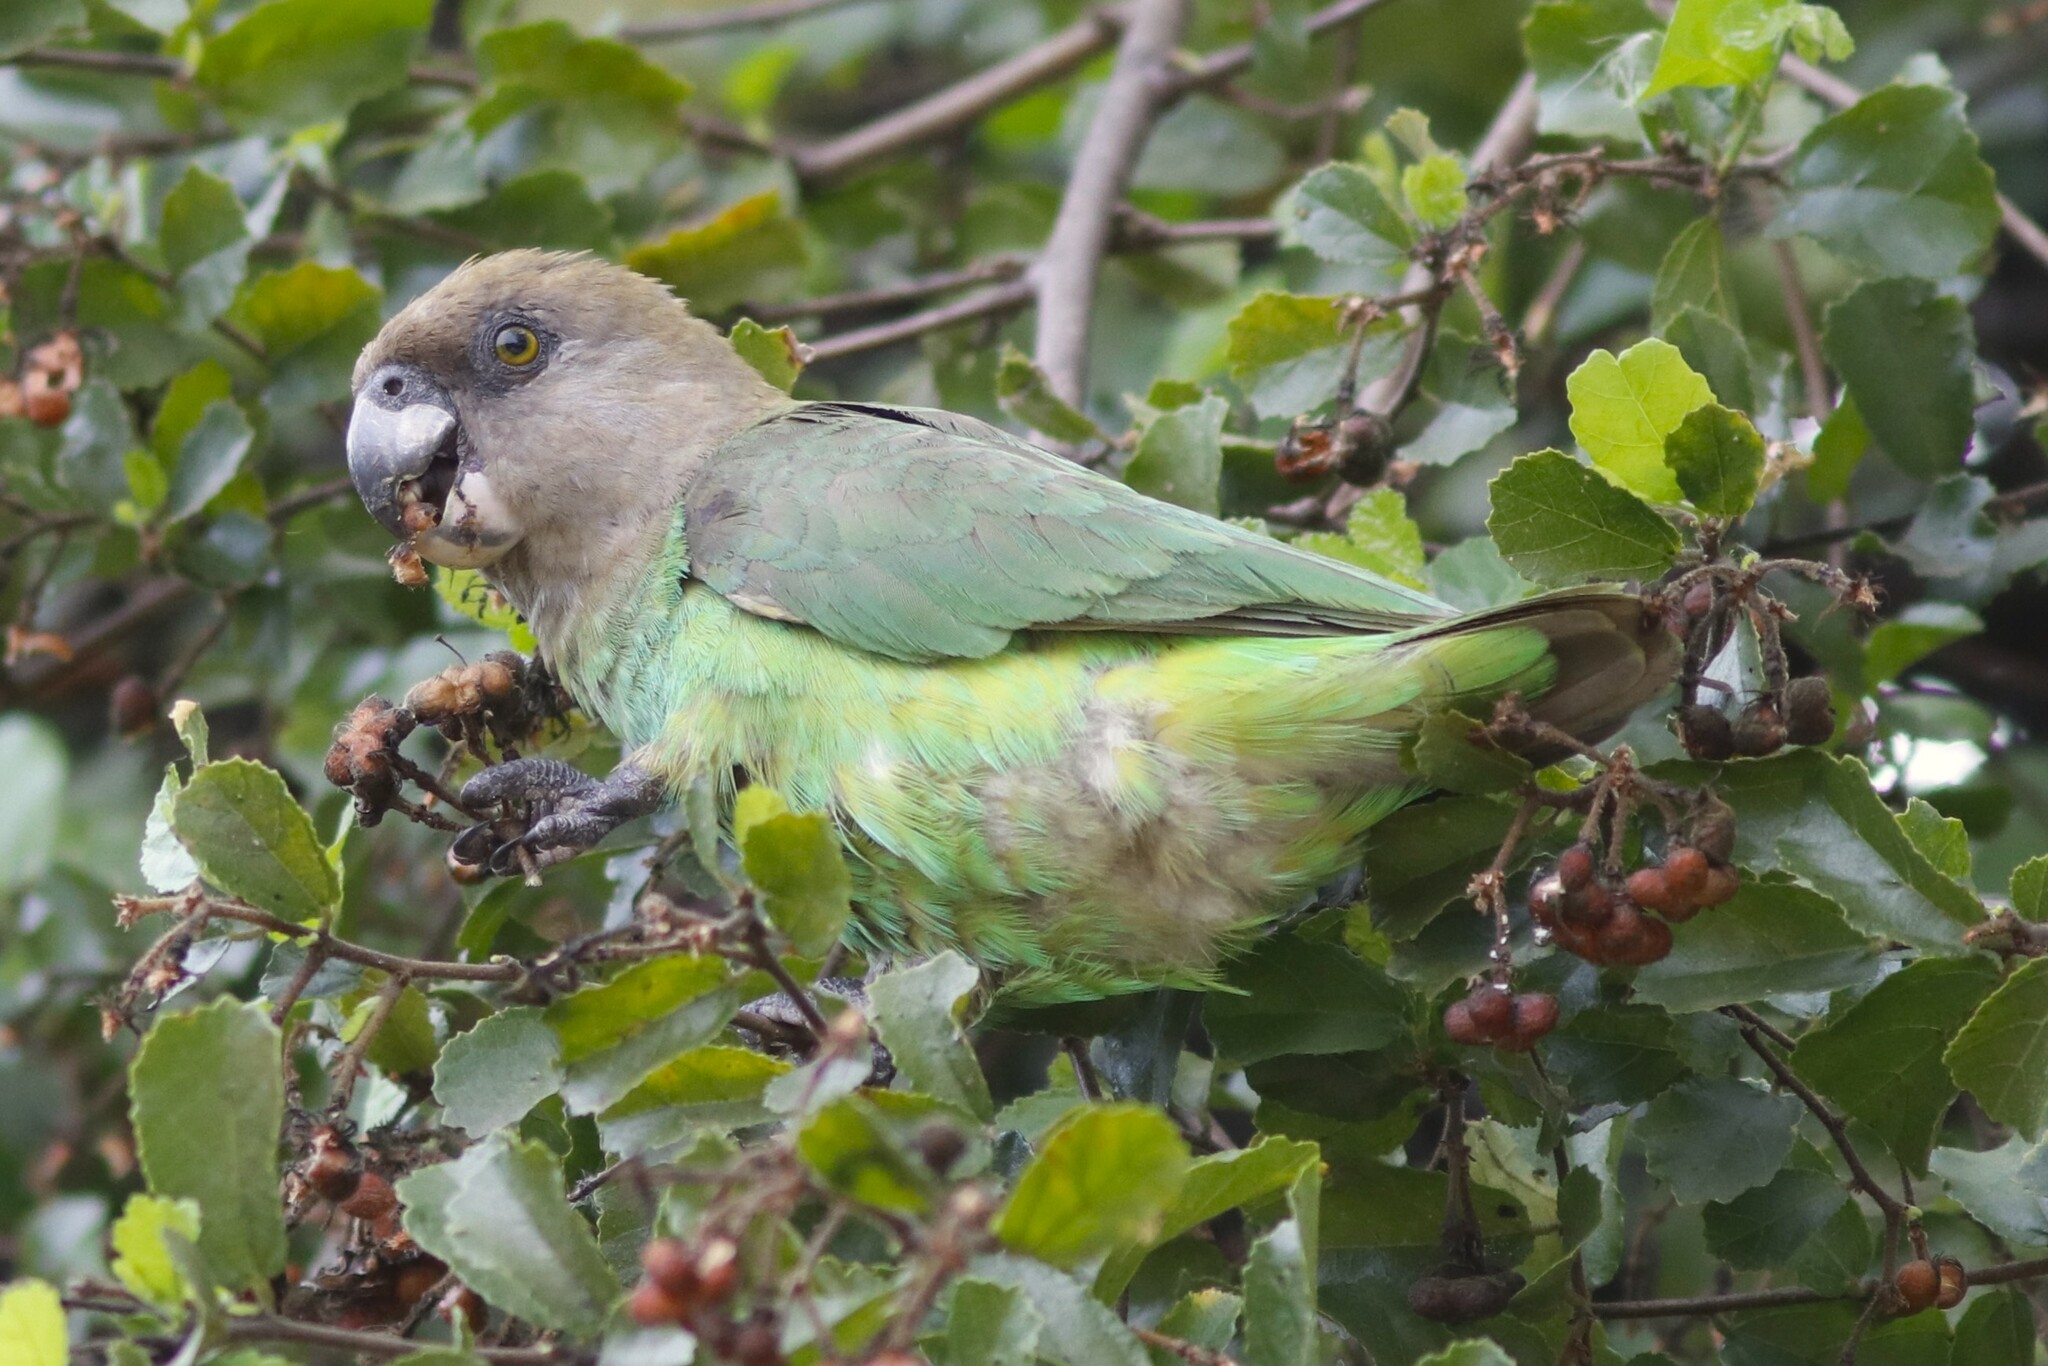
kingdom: Animalia
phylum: Chordata
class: Aves
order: Psittaciformes
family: Psittacidae
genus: Poicephalus
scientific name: Poicephalus cryptoxanthus
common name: Brown-headed parrot
